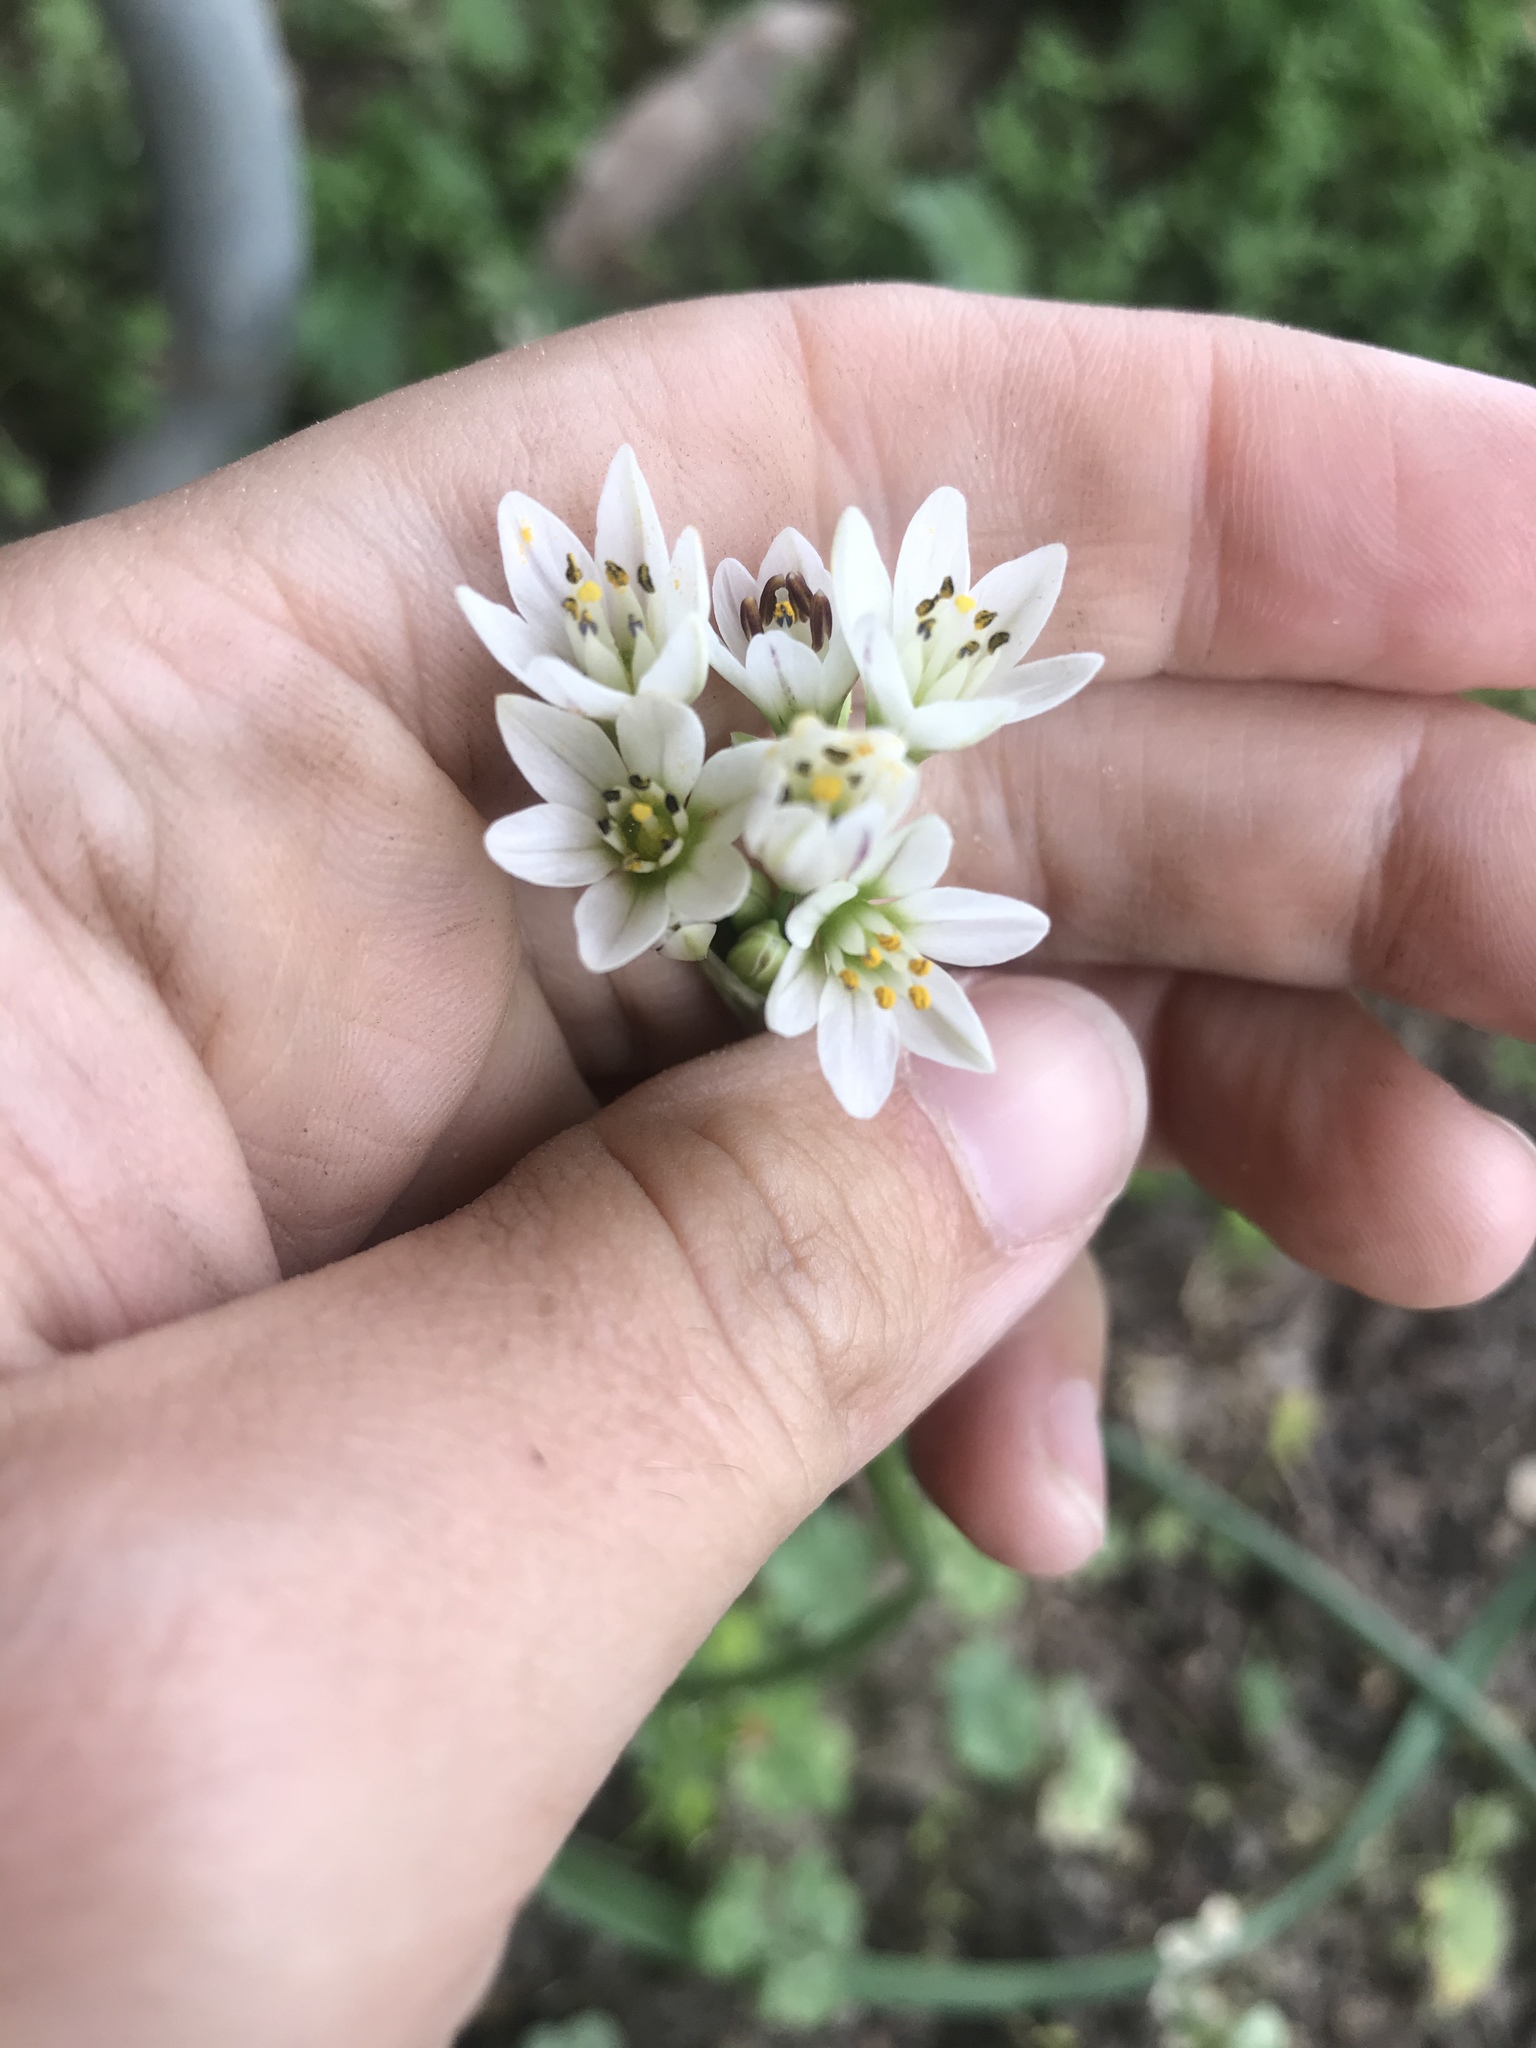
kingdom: Plantae
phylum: Tracheophyta
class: Liliopsida
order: Asparagales
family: Amaryllidaceae
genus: Nothoscordum
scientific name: Nothoscordum gracile
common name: Slender false garlic
